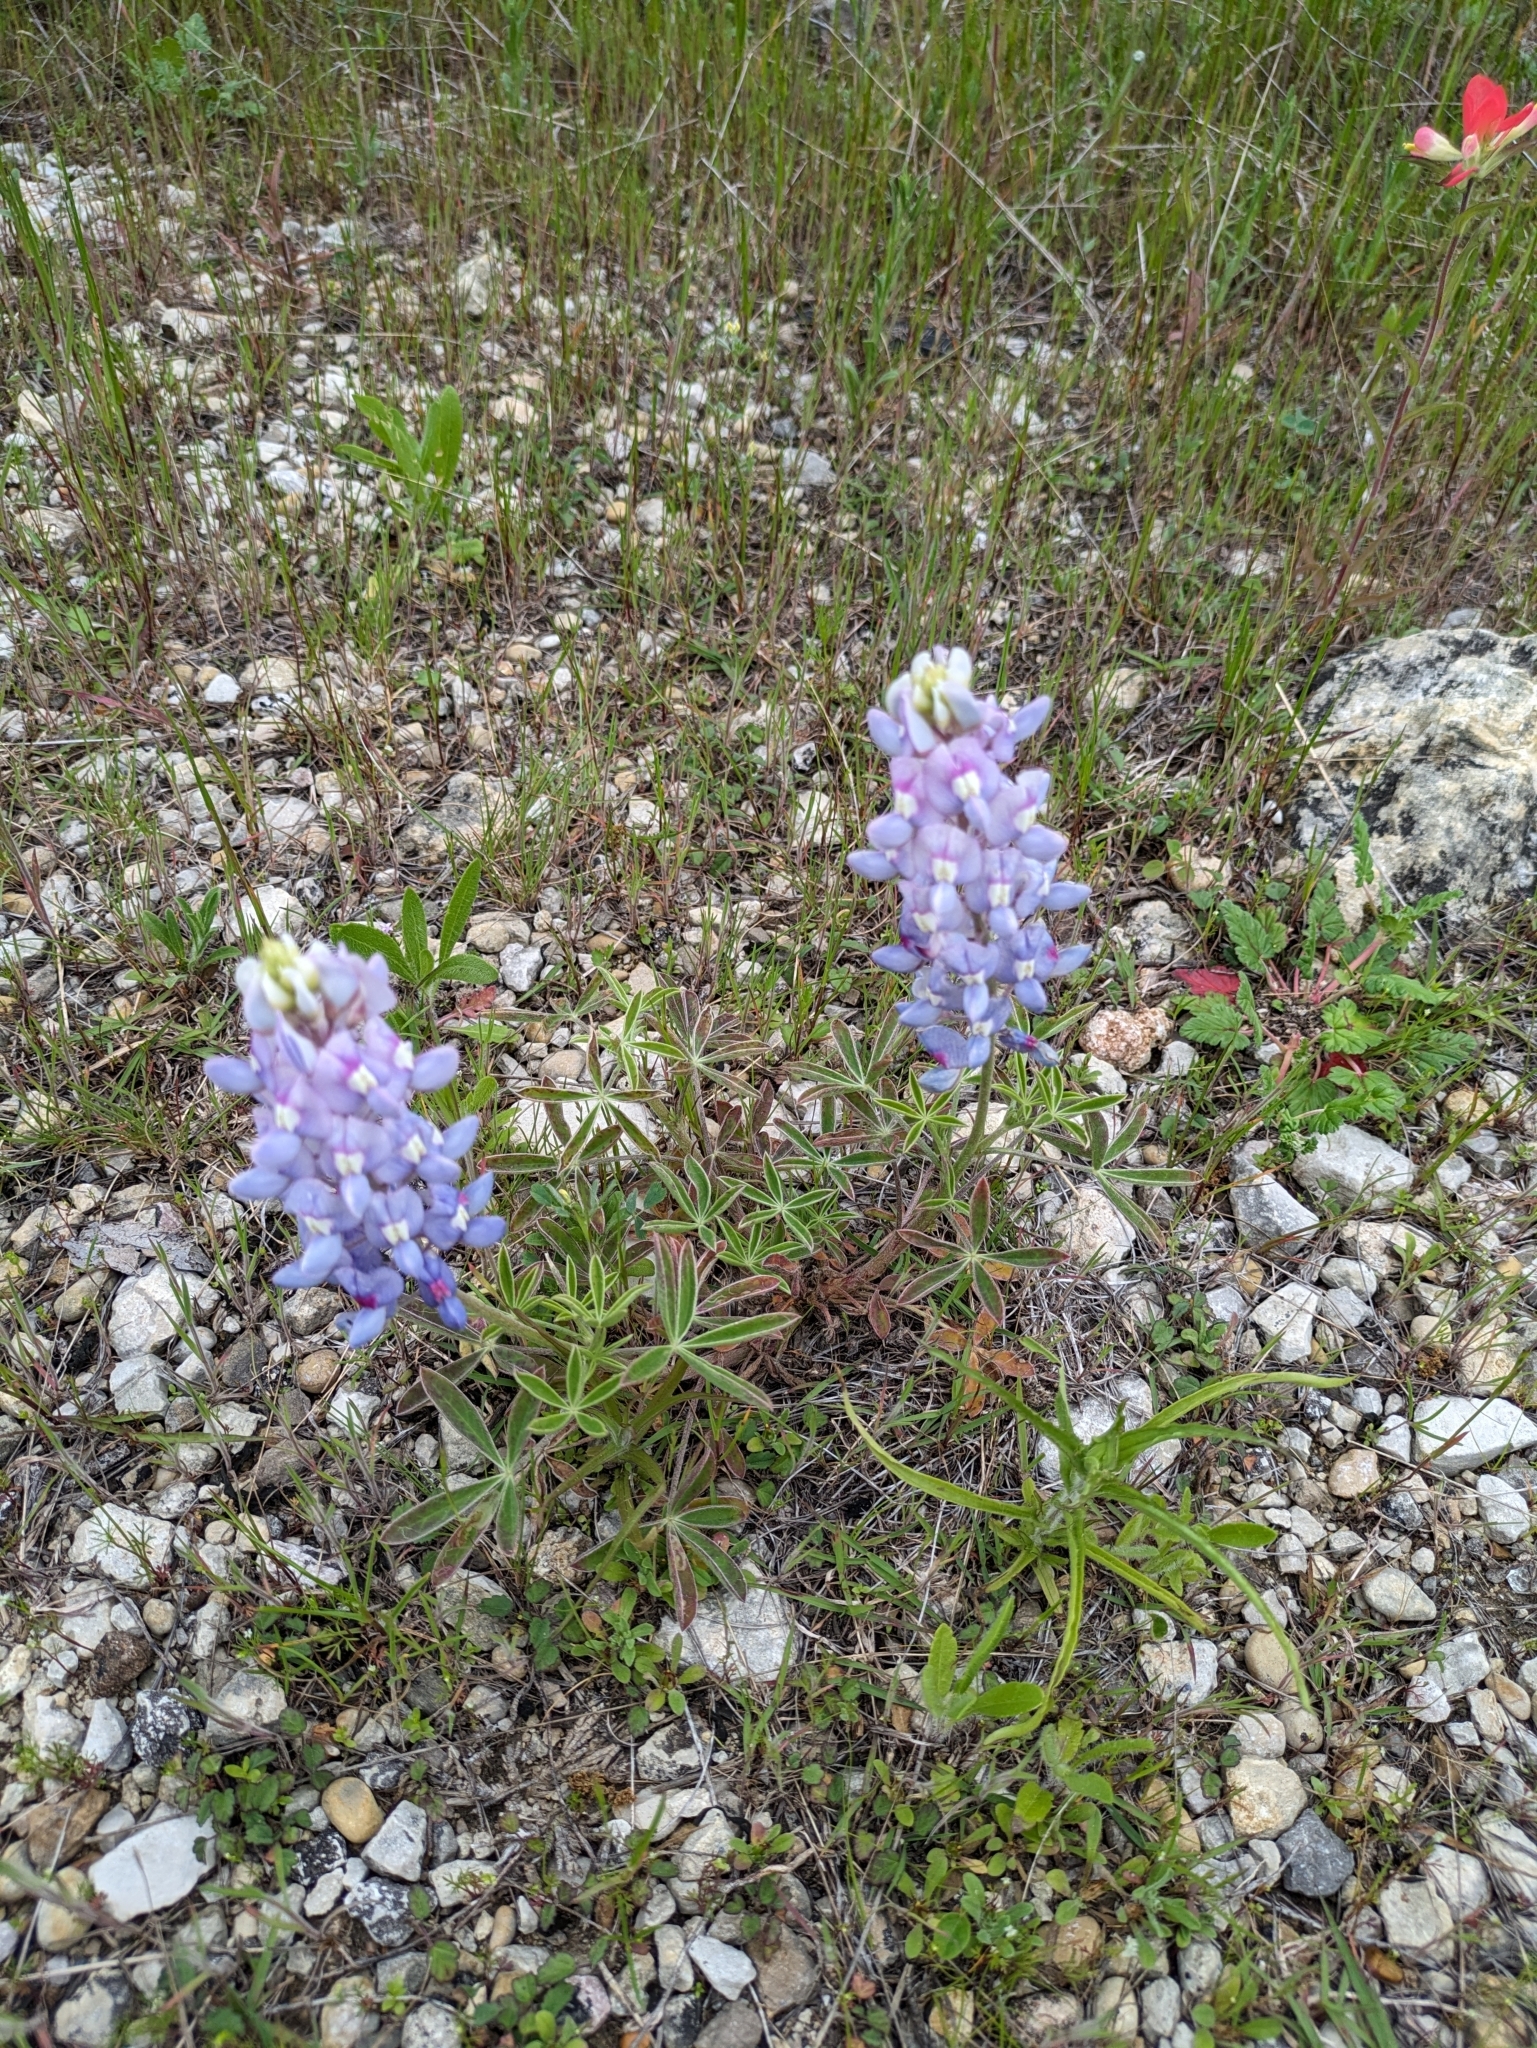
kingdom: Plantae
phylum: Tracheophyta
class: Magnoliopsida
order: Fabales
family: Fabaceae
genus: Lupinus
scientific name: Lupinus texensis
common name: Texas bluebonnet
